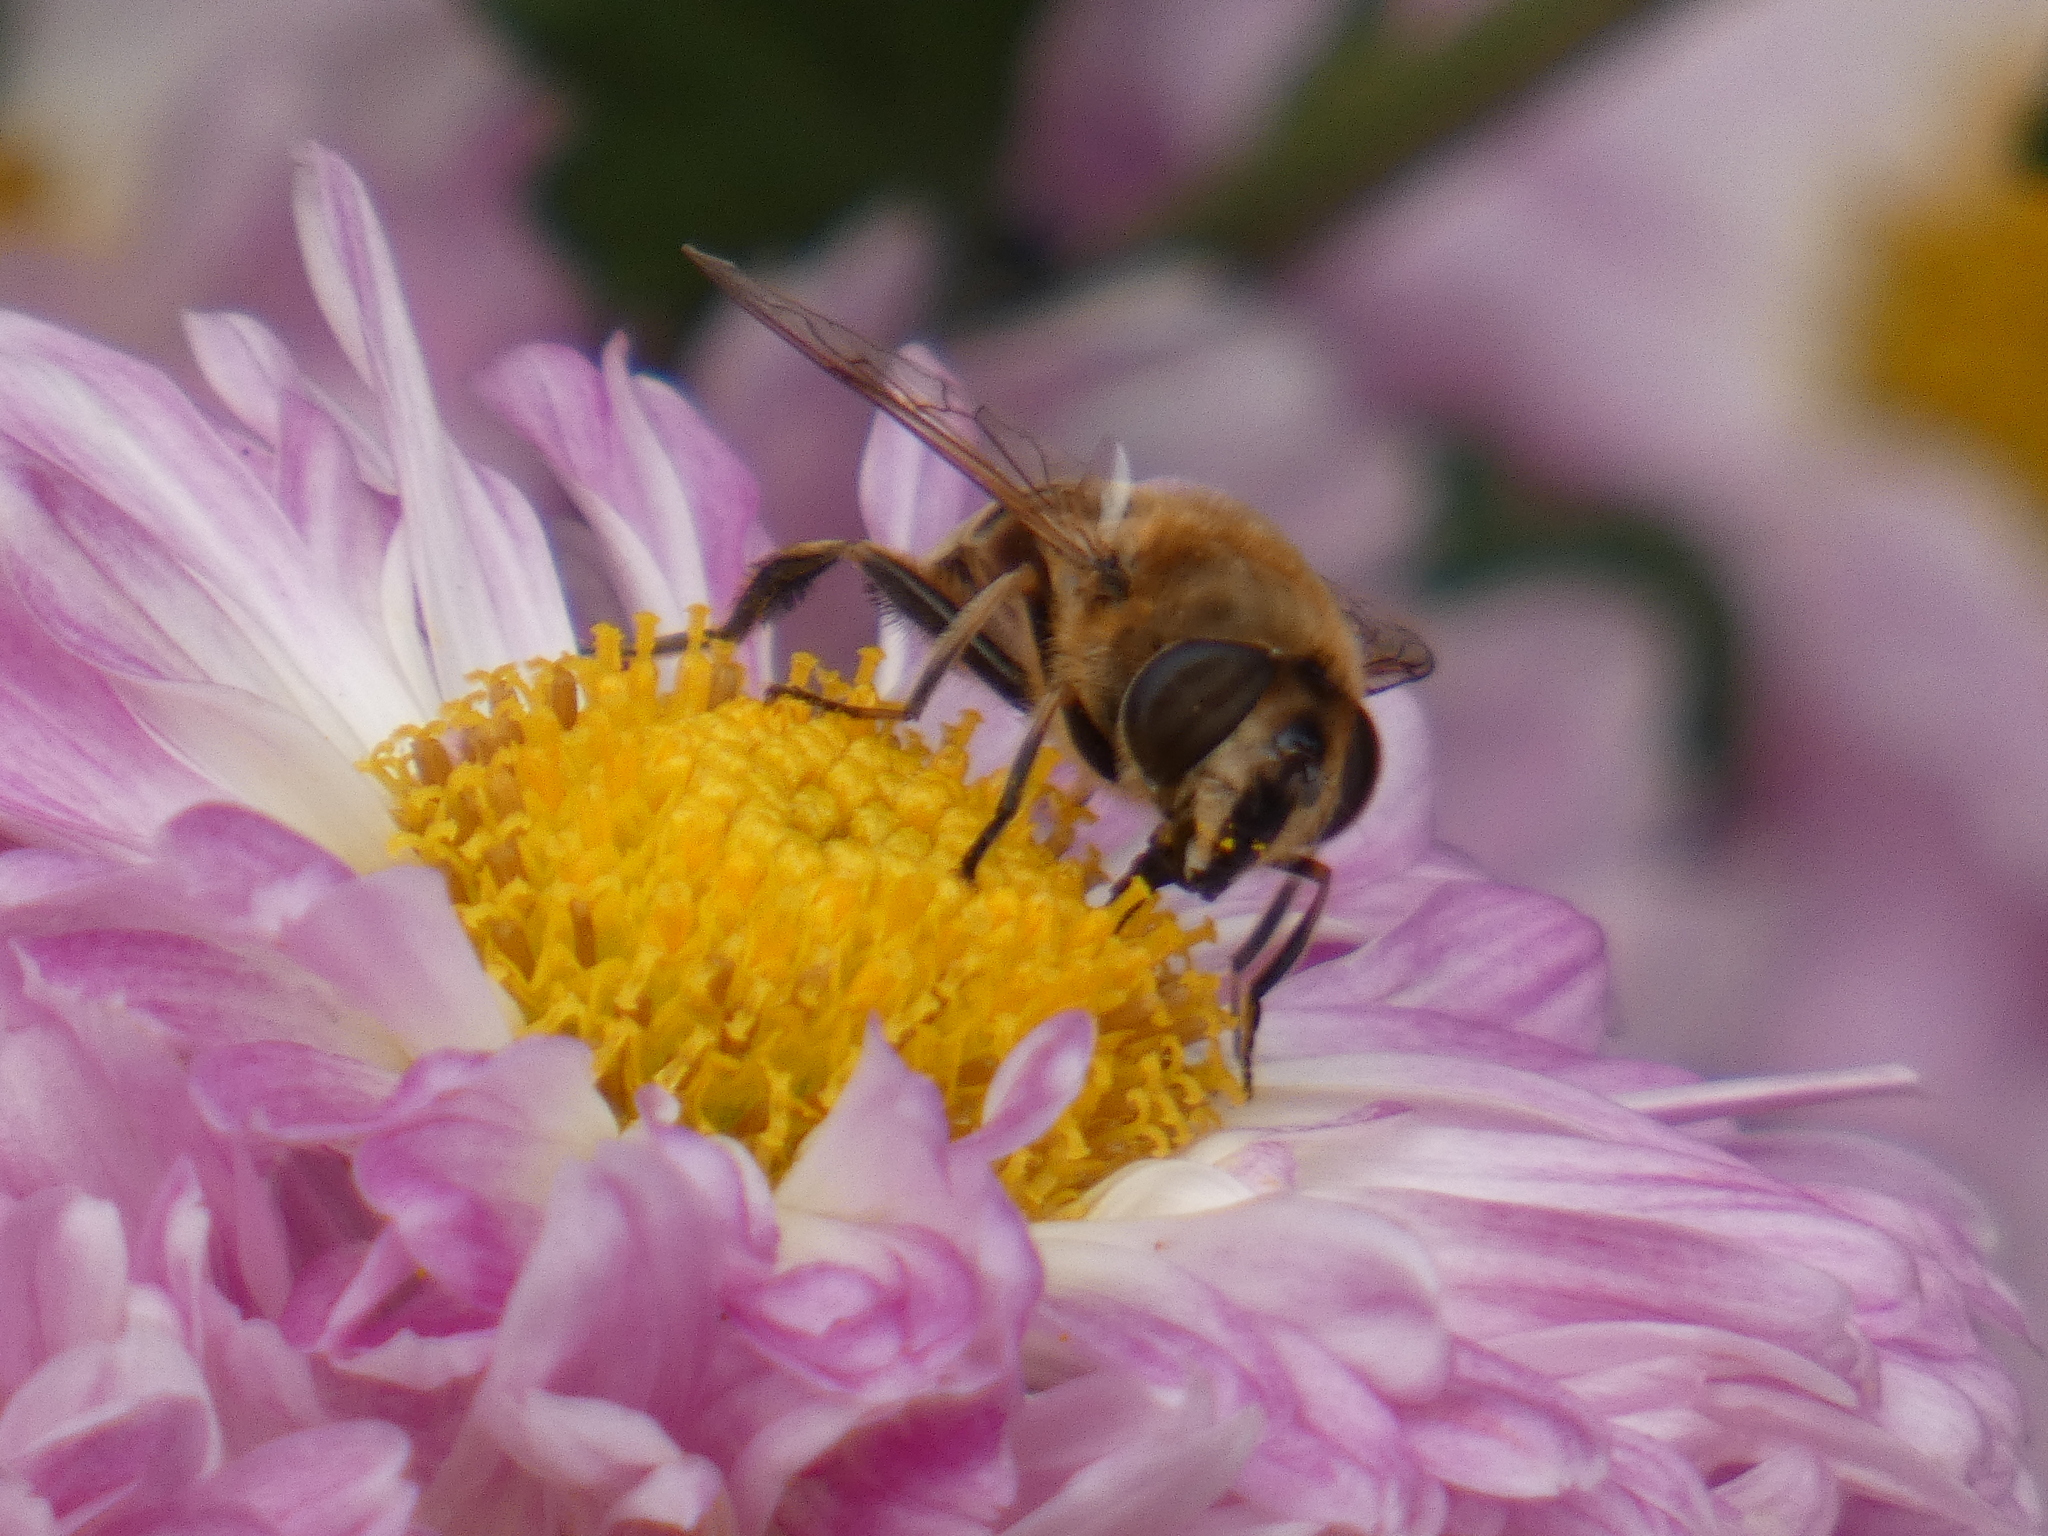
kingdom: Animalia
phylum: Arthropoda
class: Insecta
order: Diptera
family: Syrphidae
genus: Eristalis
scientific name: Eristalis tenax
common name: Drone fly
